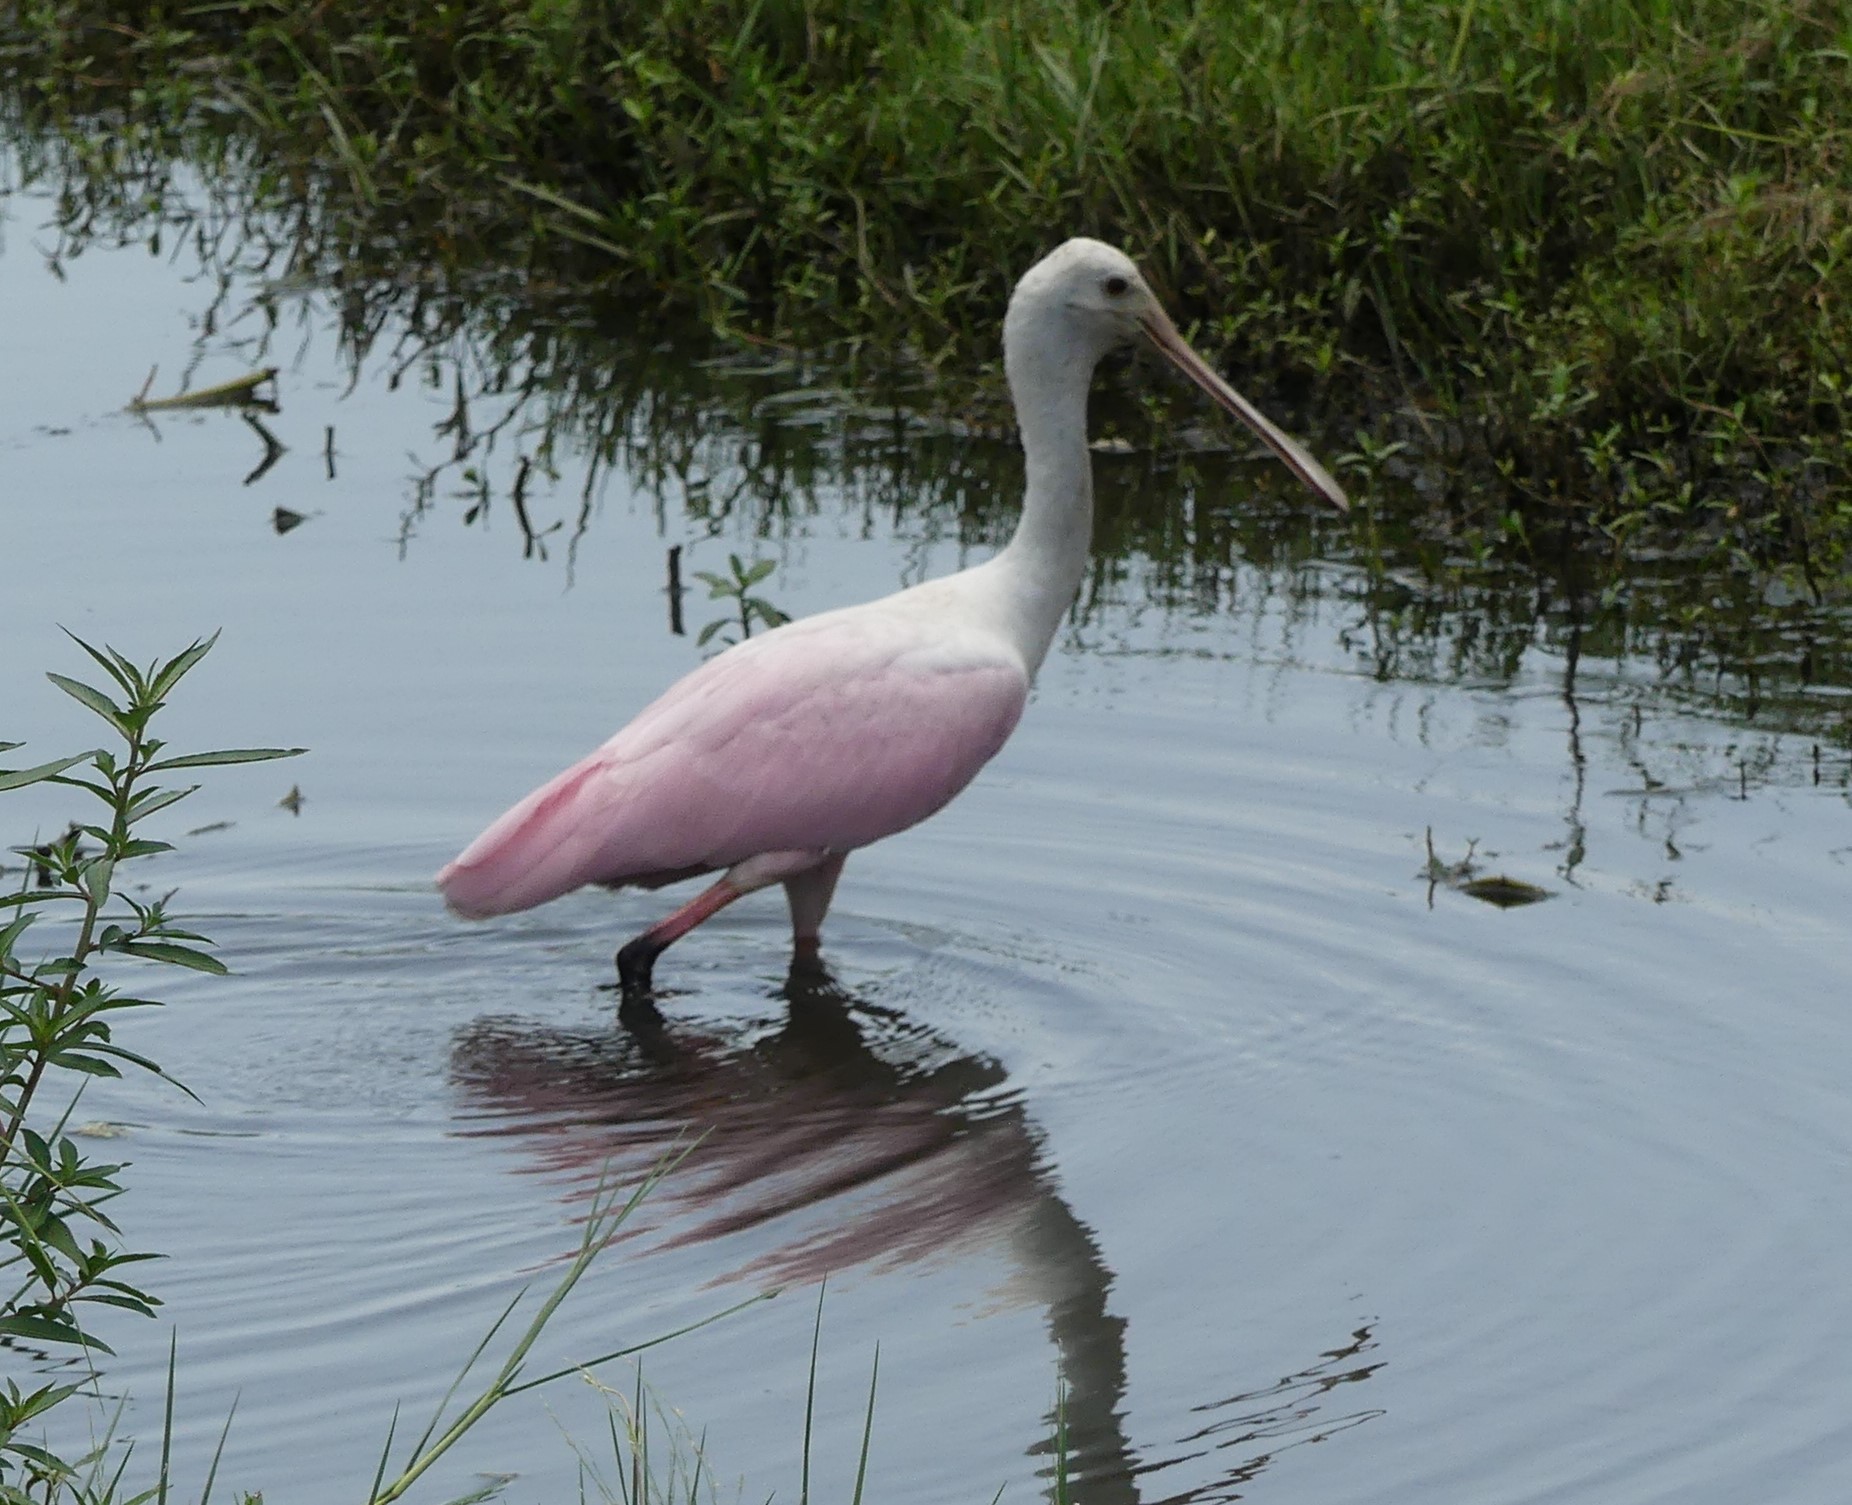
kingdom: Animalia
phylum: Chordata
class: Aves
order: Pelecaniformes
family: Threskiornithidae
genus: Platalea
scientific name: Platalea ajaja
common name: Roseate spoonbill
